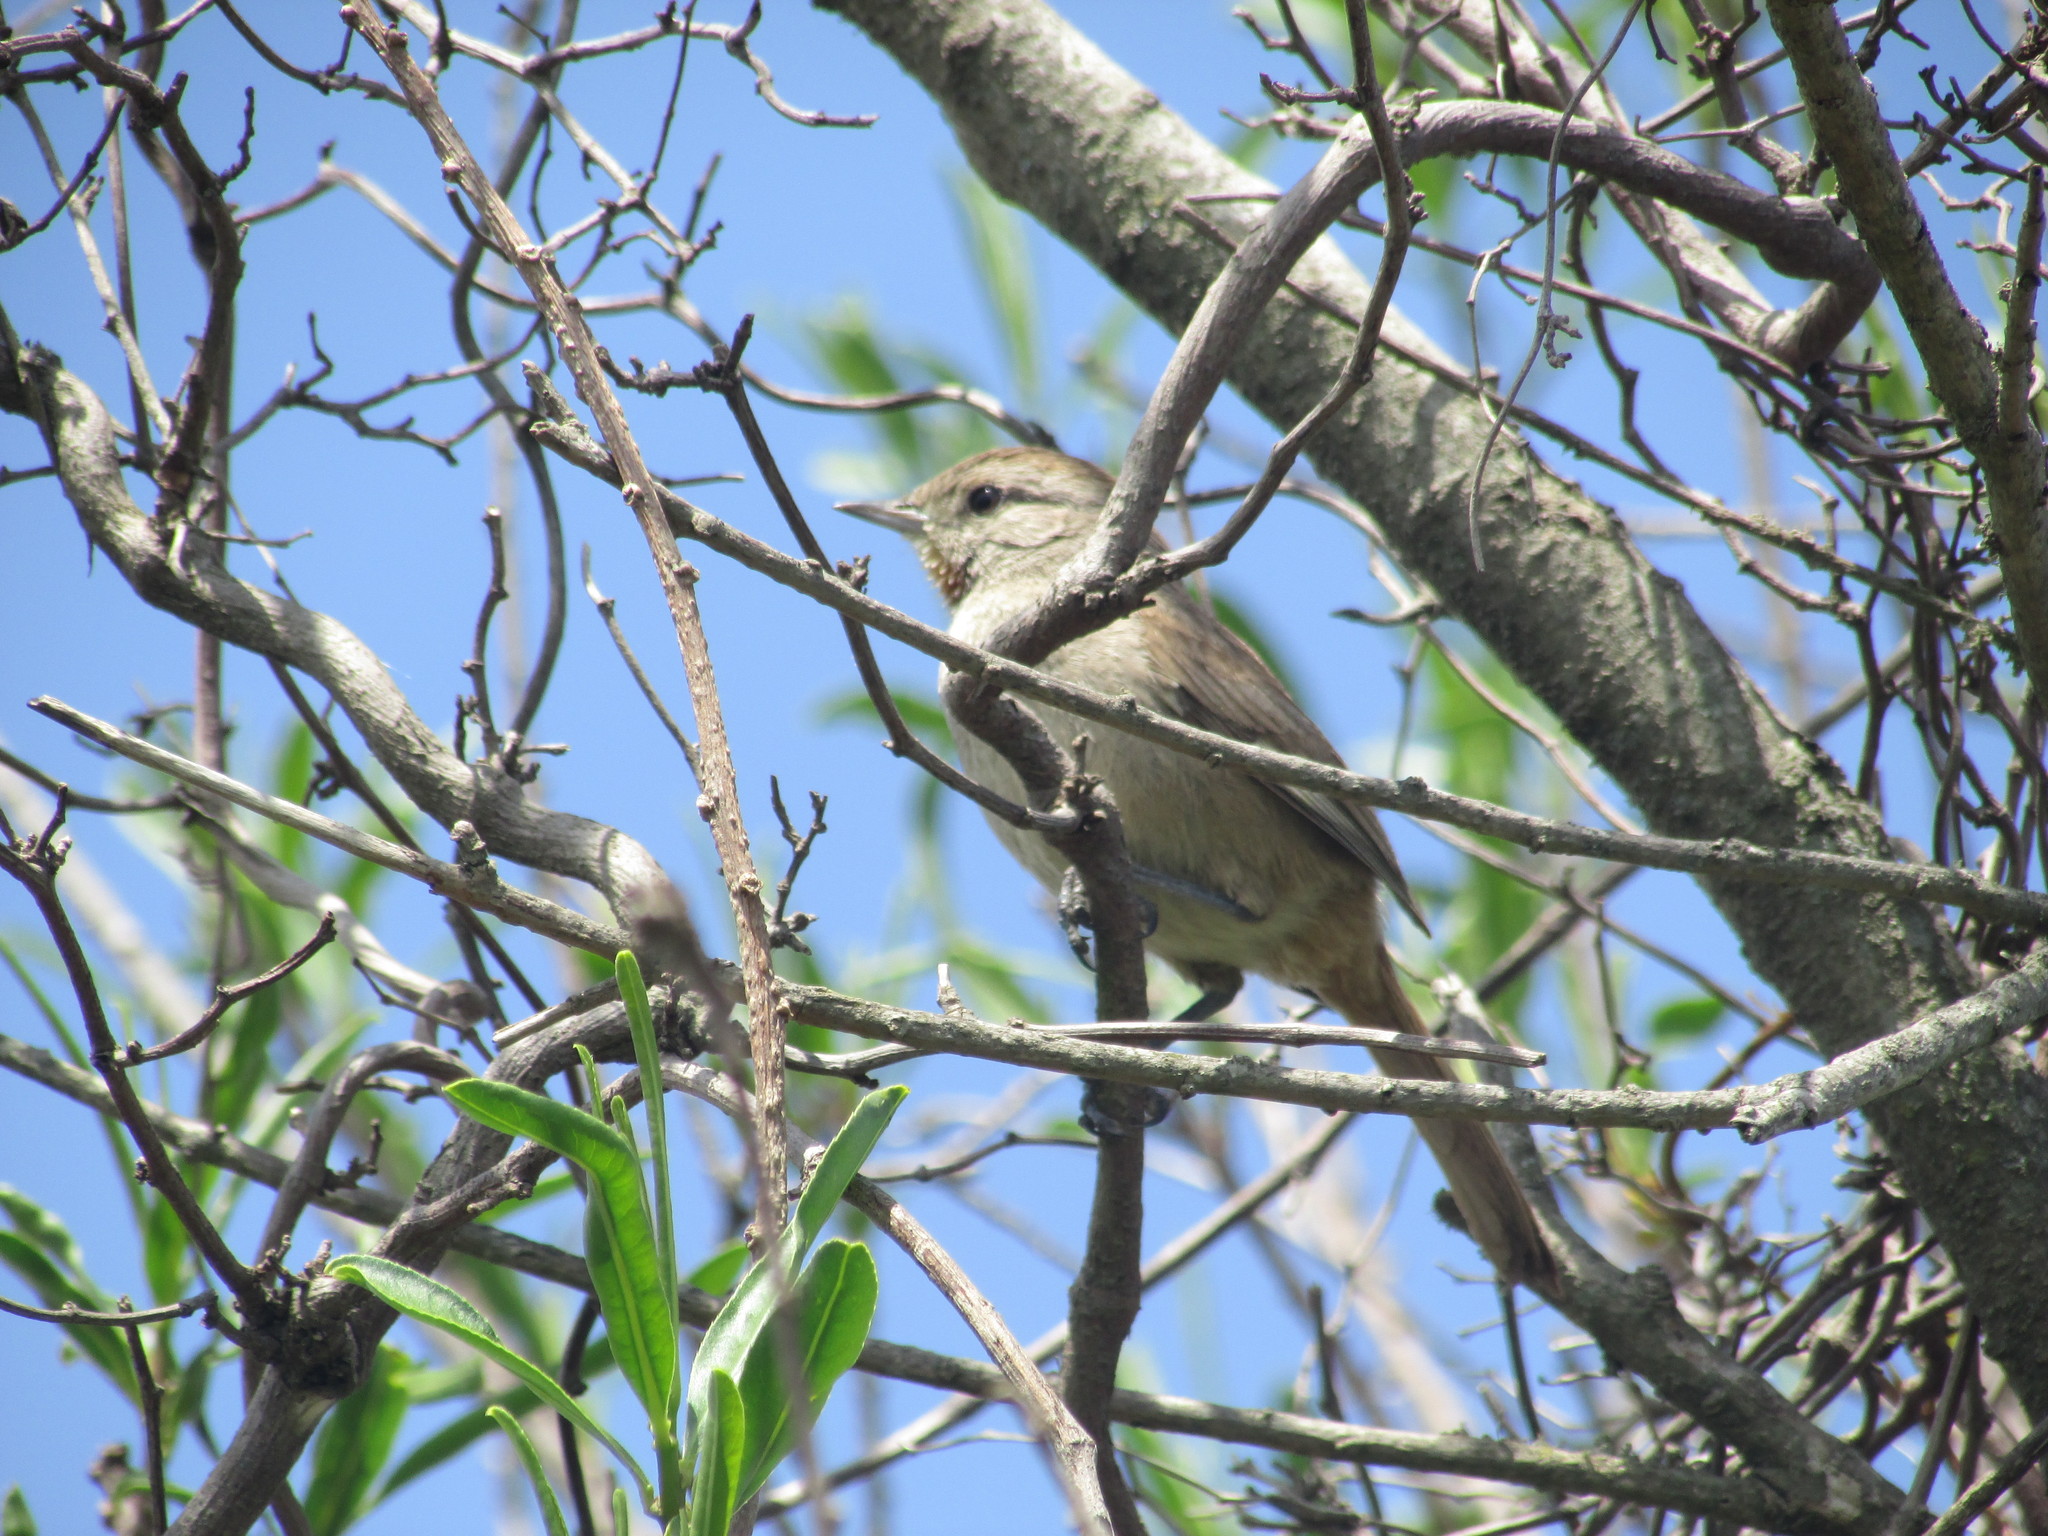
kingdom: Animalia
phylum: Chordata
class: Aves
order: Passeriformes
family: Furnariidae
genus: Asthenes
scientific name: Asthenes baeri
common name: Short-billed canastero
